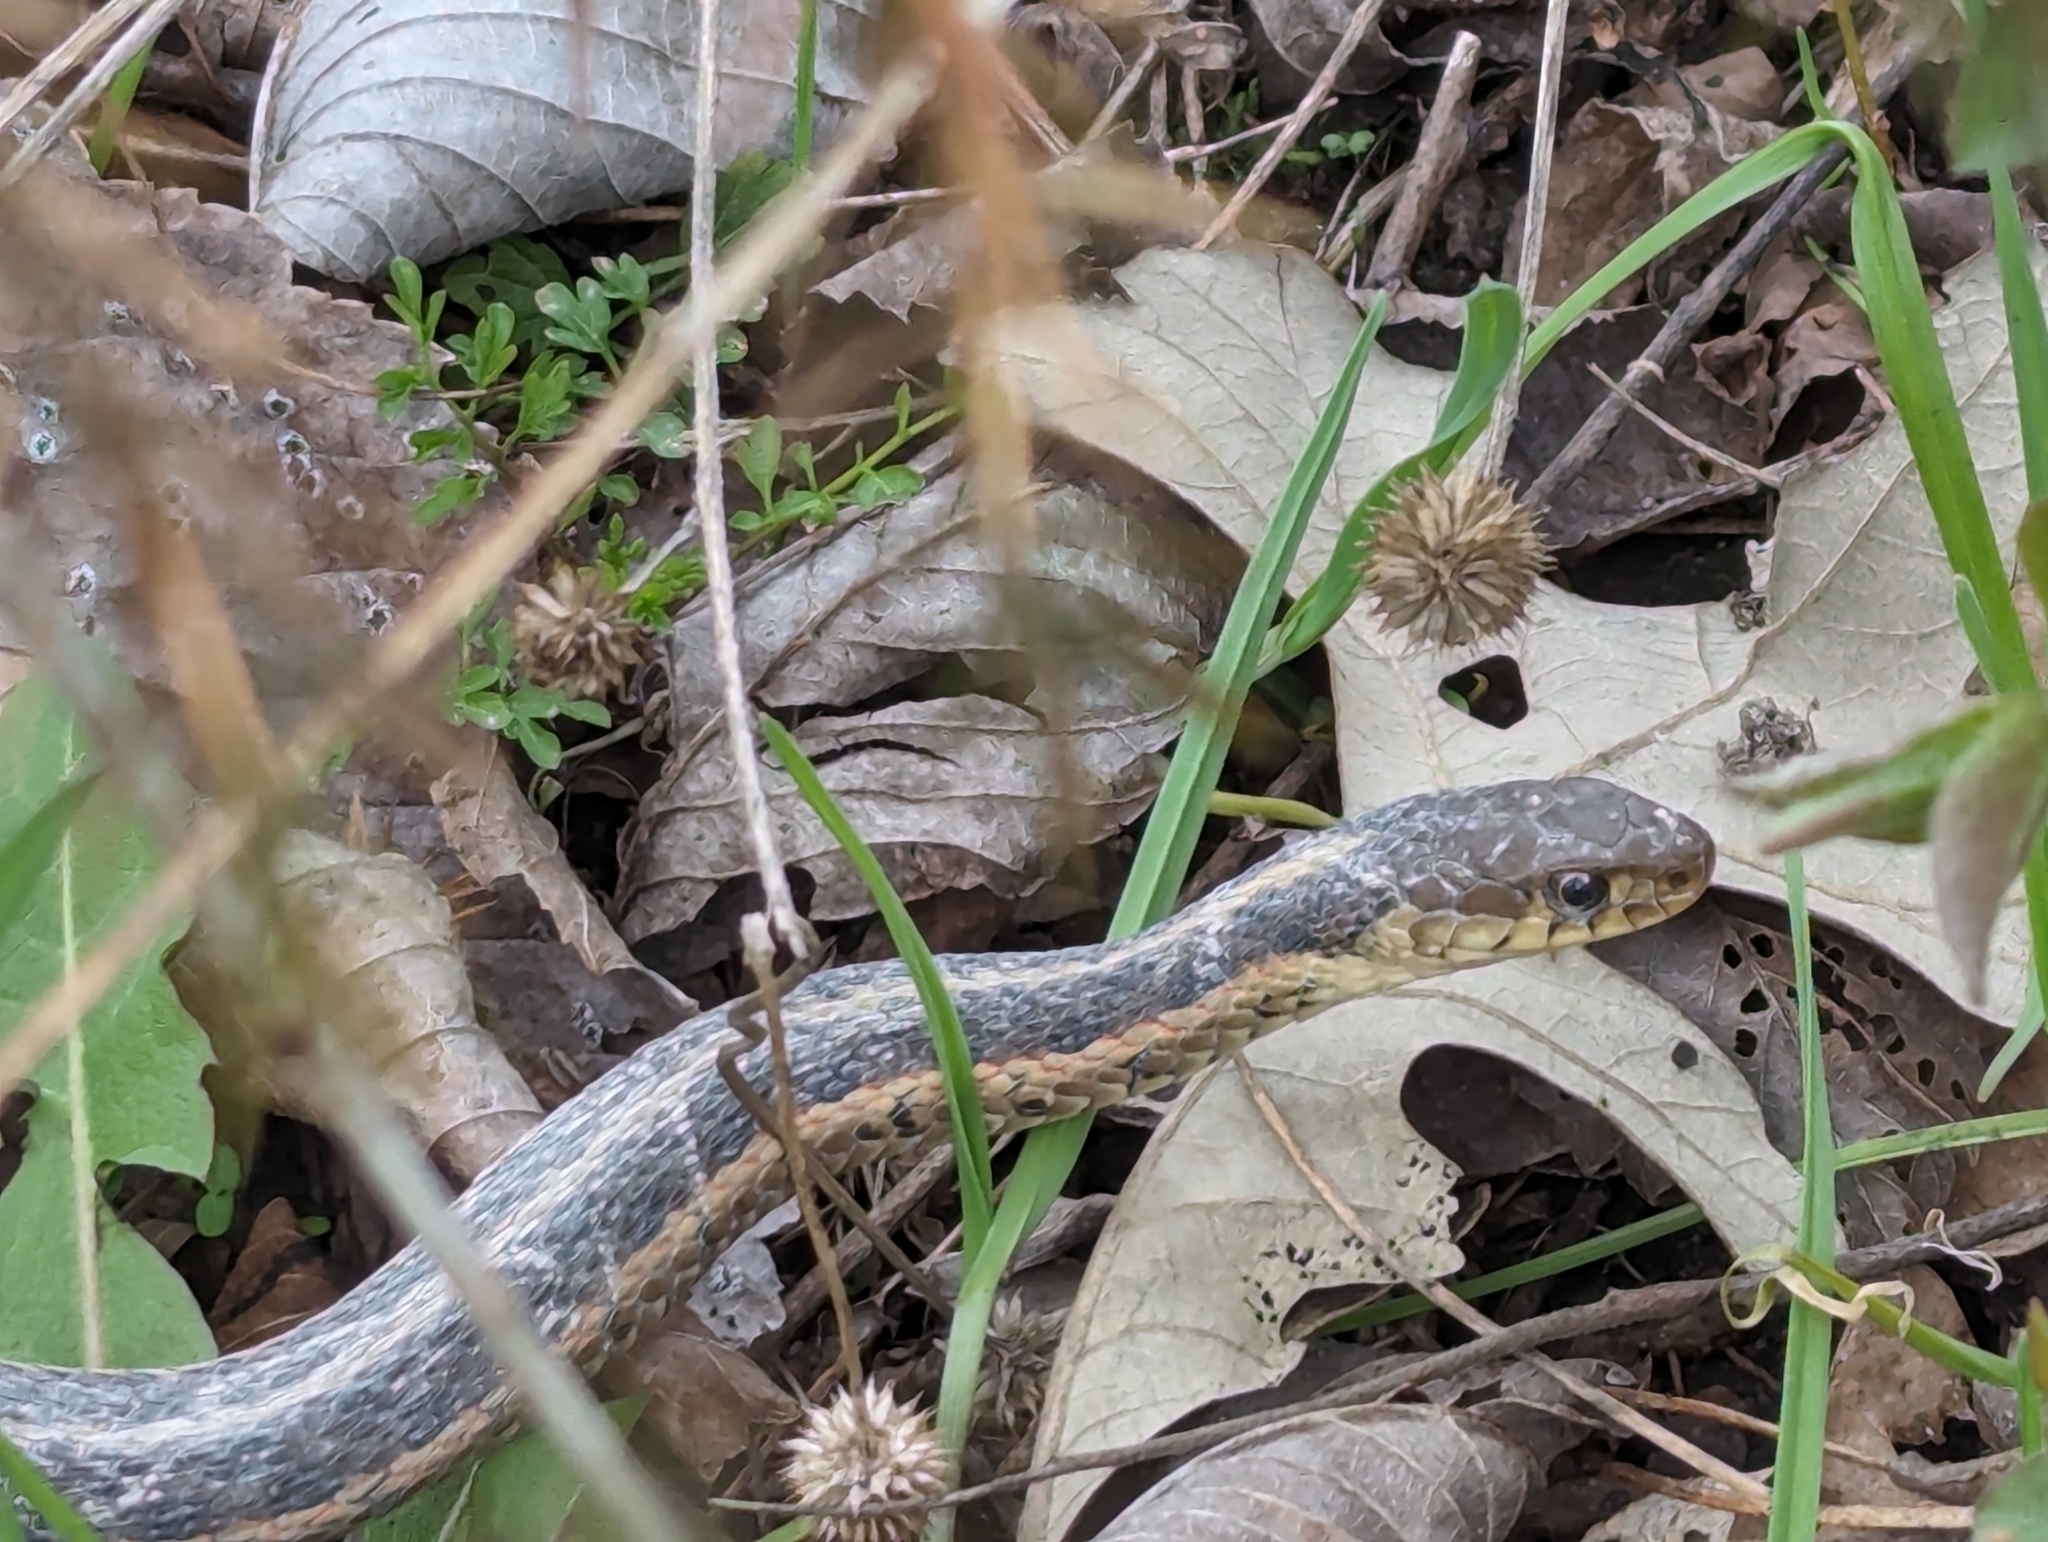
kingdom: Animalia
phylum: Chordata
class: Squamata
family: Colubridae
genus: Thamnophis
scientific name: Thamnophis sirtalis
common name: Common garter snake
